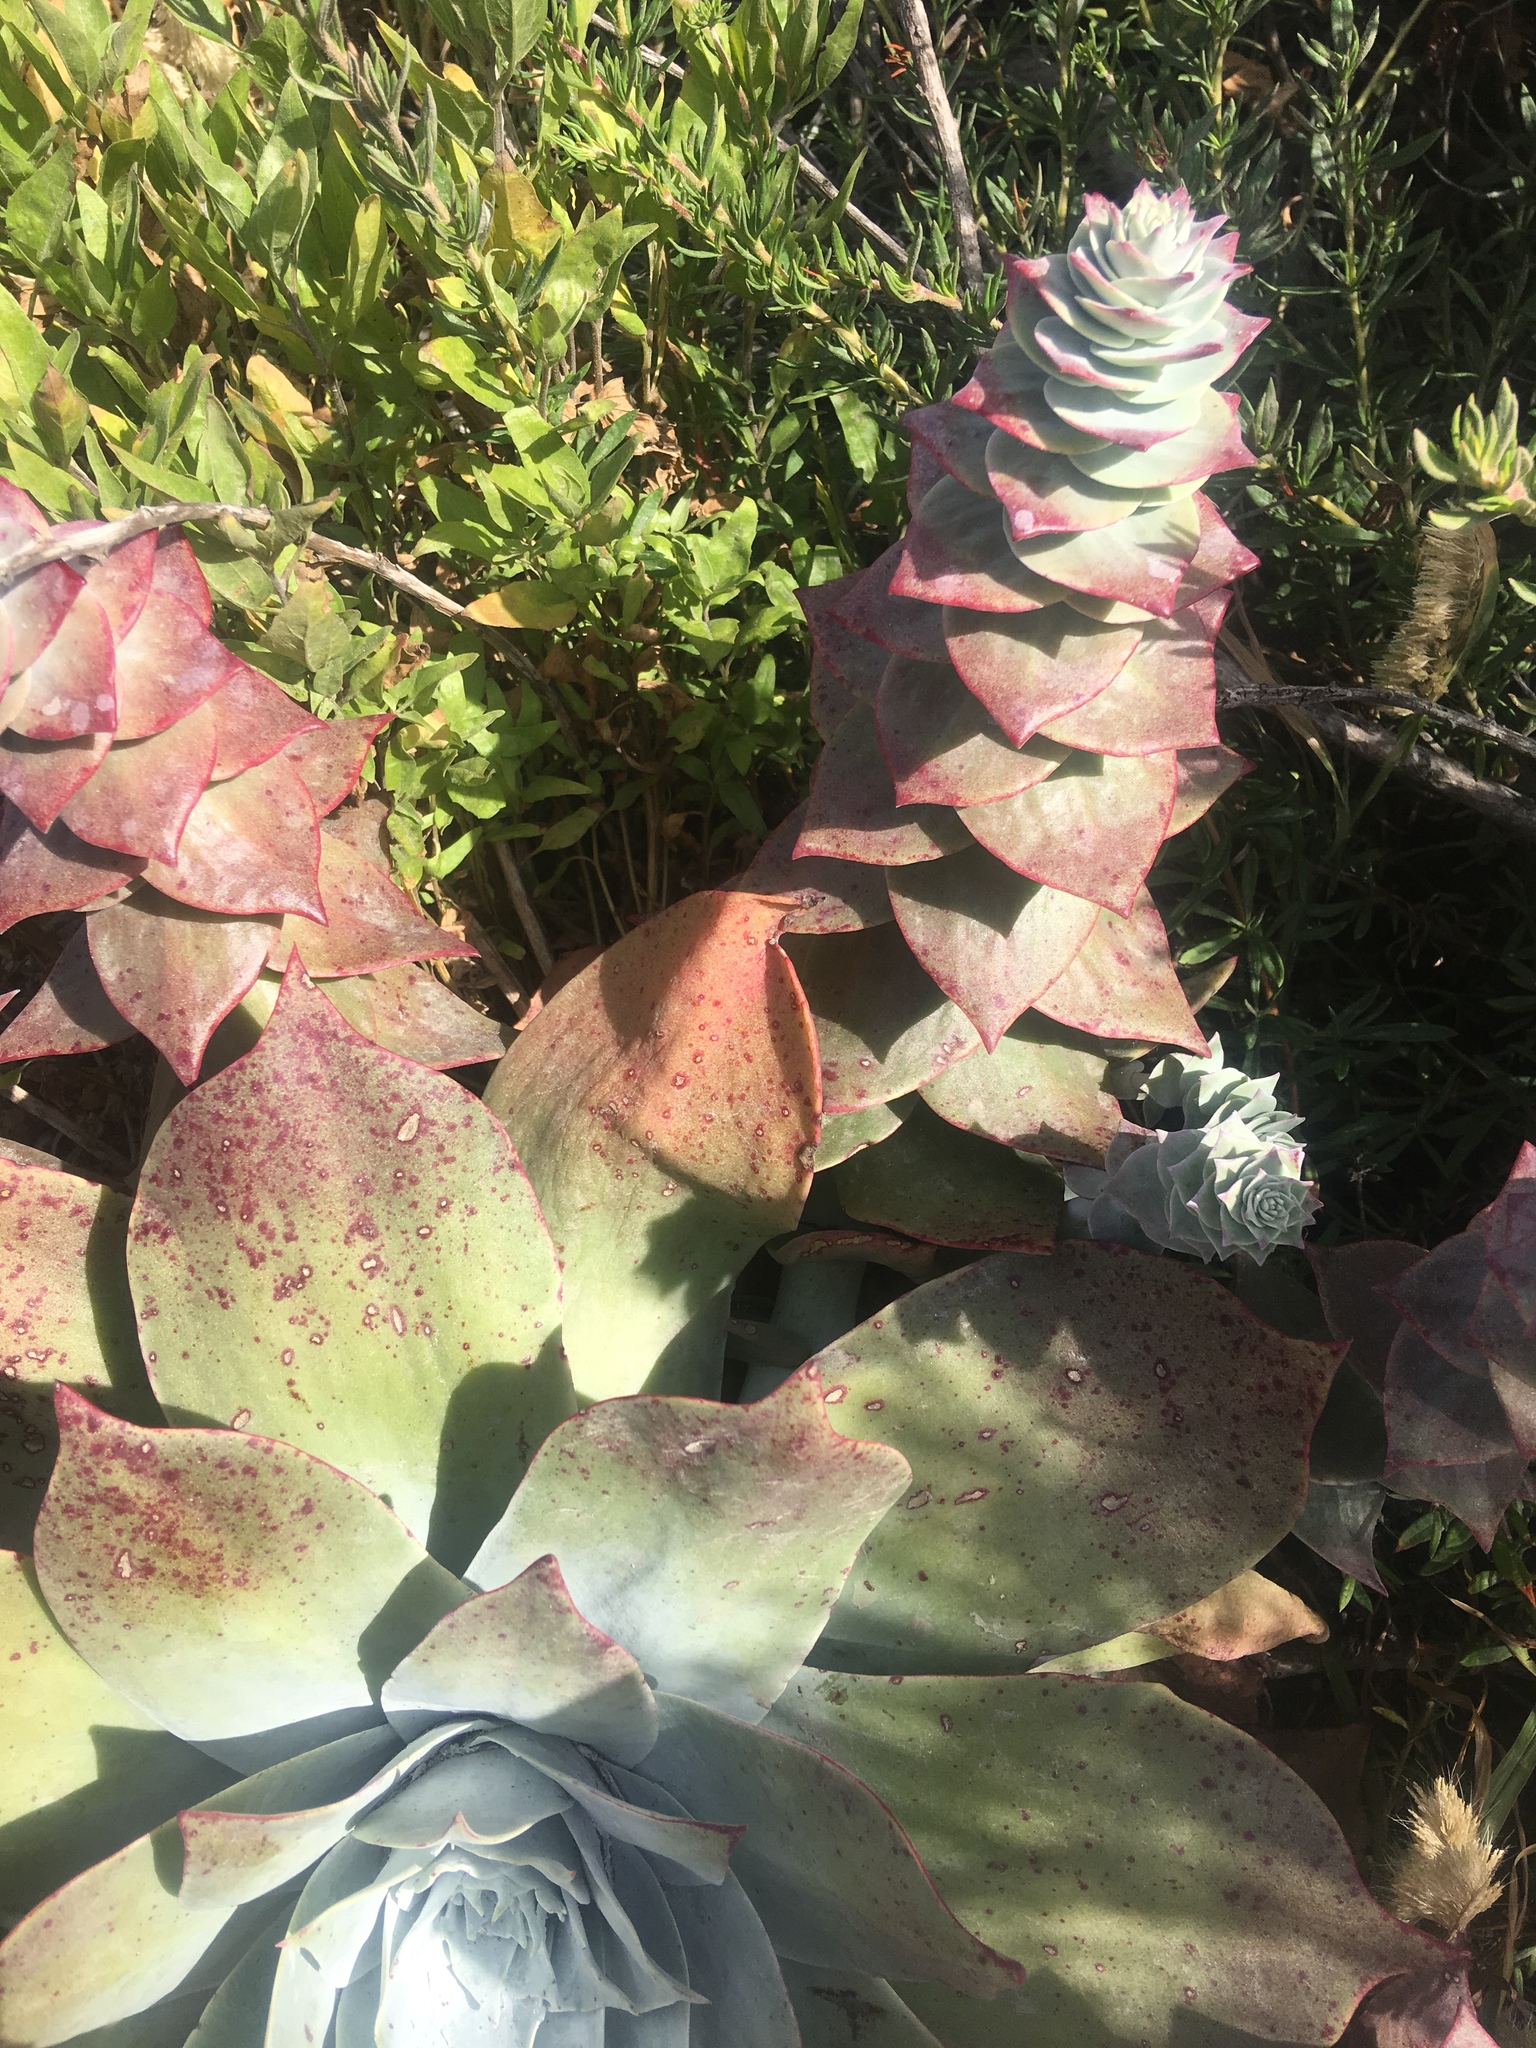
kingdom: Plantae
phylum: Tracheophyta
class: Magnoliopsida
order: Saxifragales
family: Crassulaceae
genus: Dudleya
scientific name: Dudleya pulverulenta
